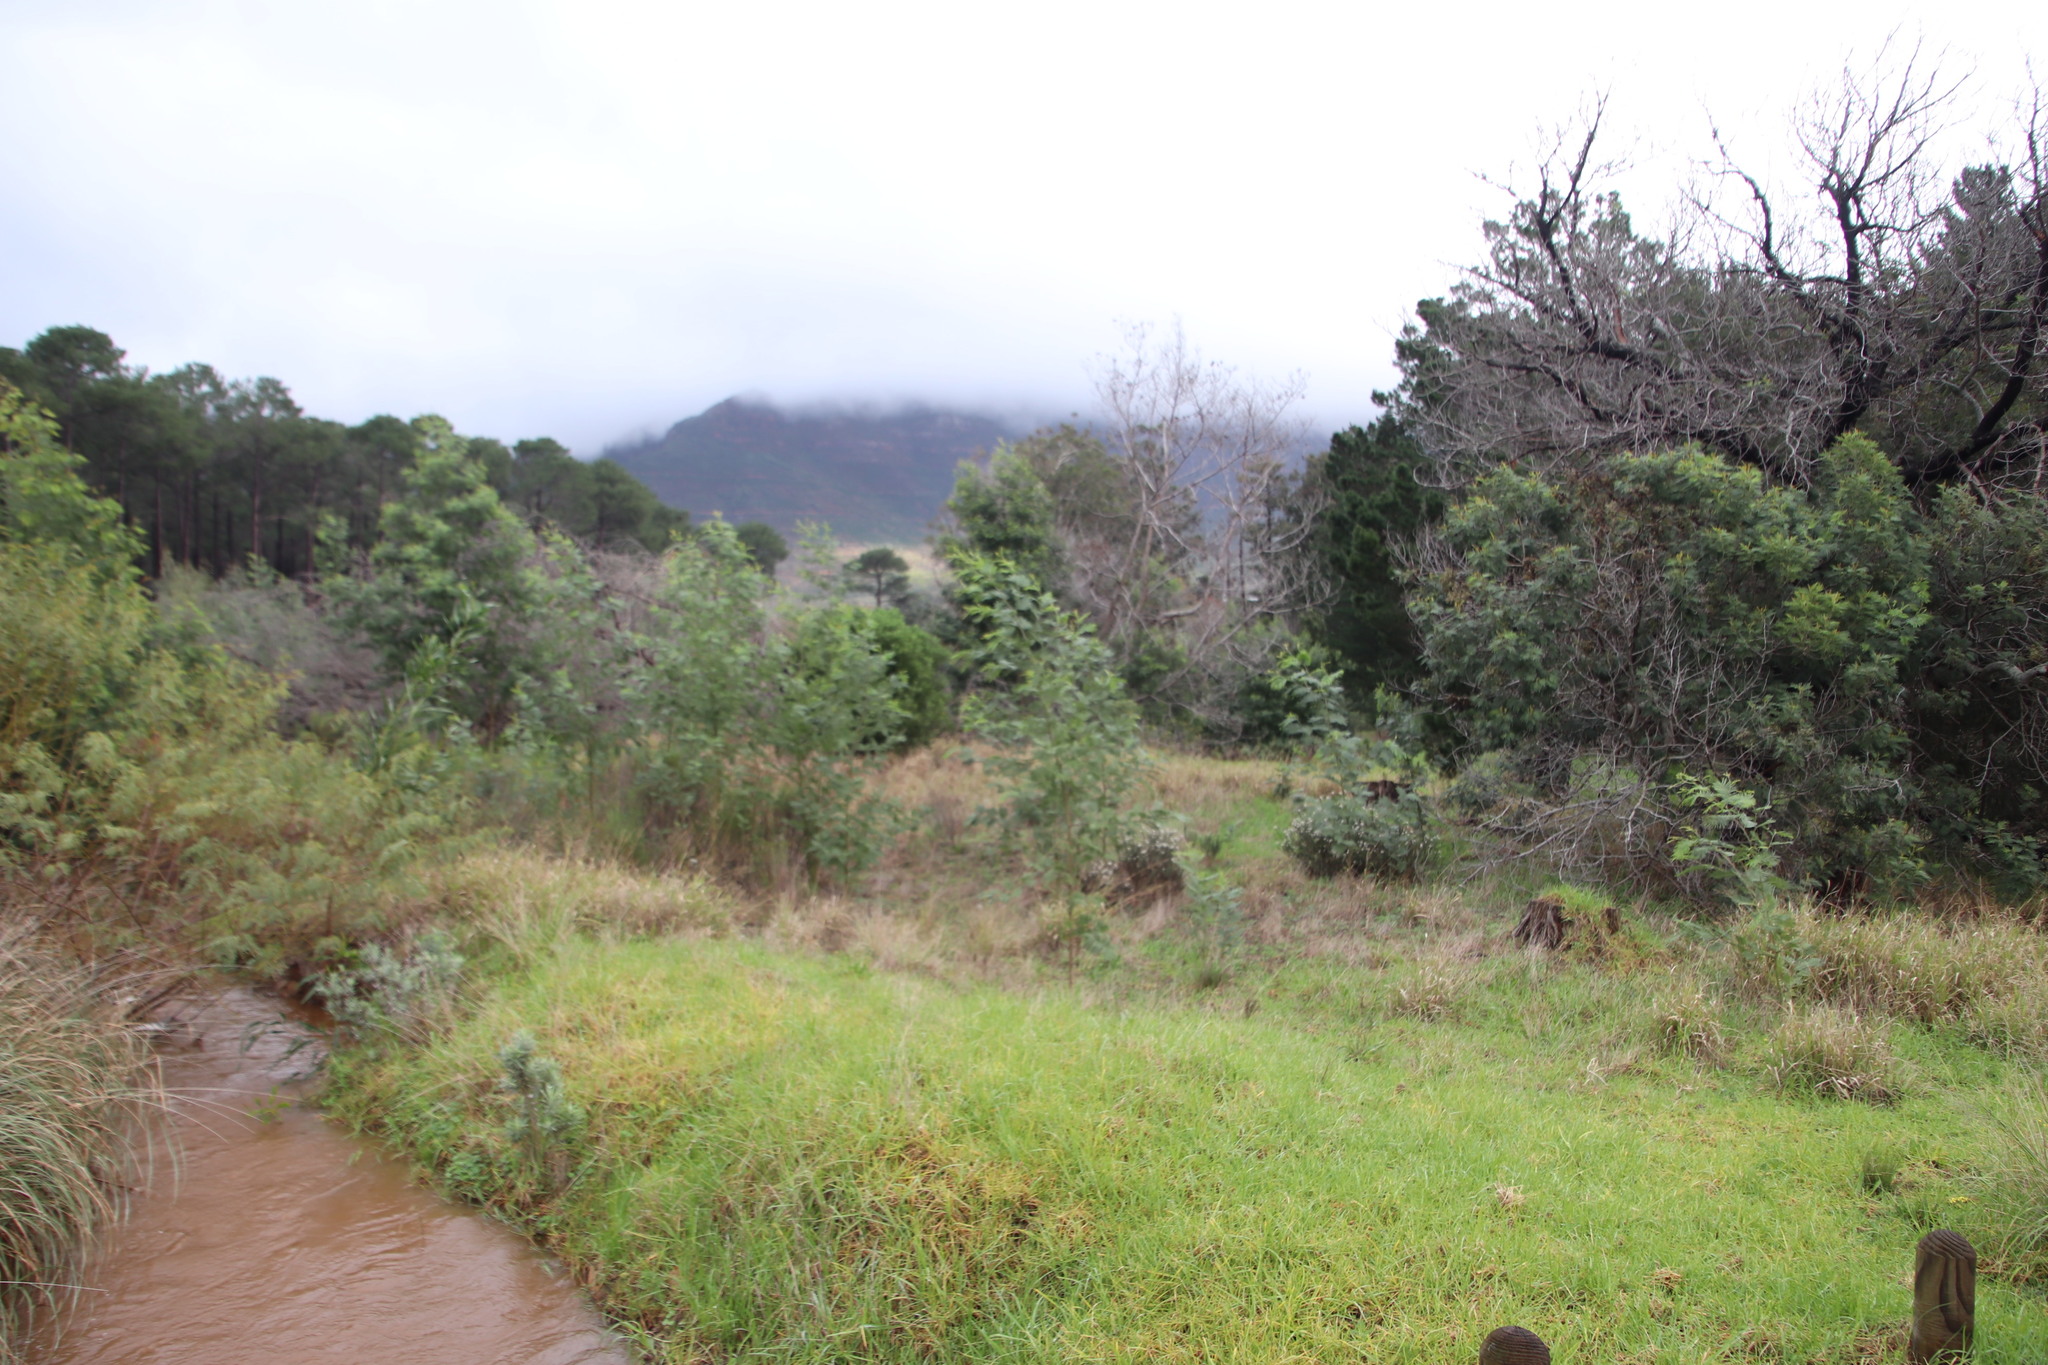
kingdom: Plantae
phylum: Tracheophyta
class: Magnoliopsida
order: Fabales
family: Fabaceae
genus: Acacia
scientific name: Acacia mearnsii
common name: Black wattle
